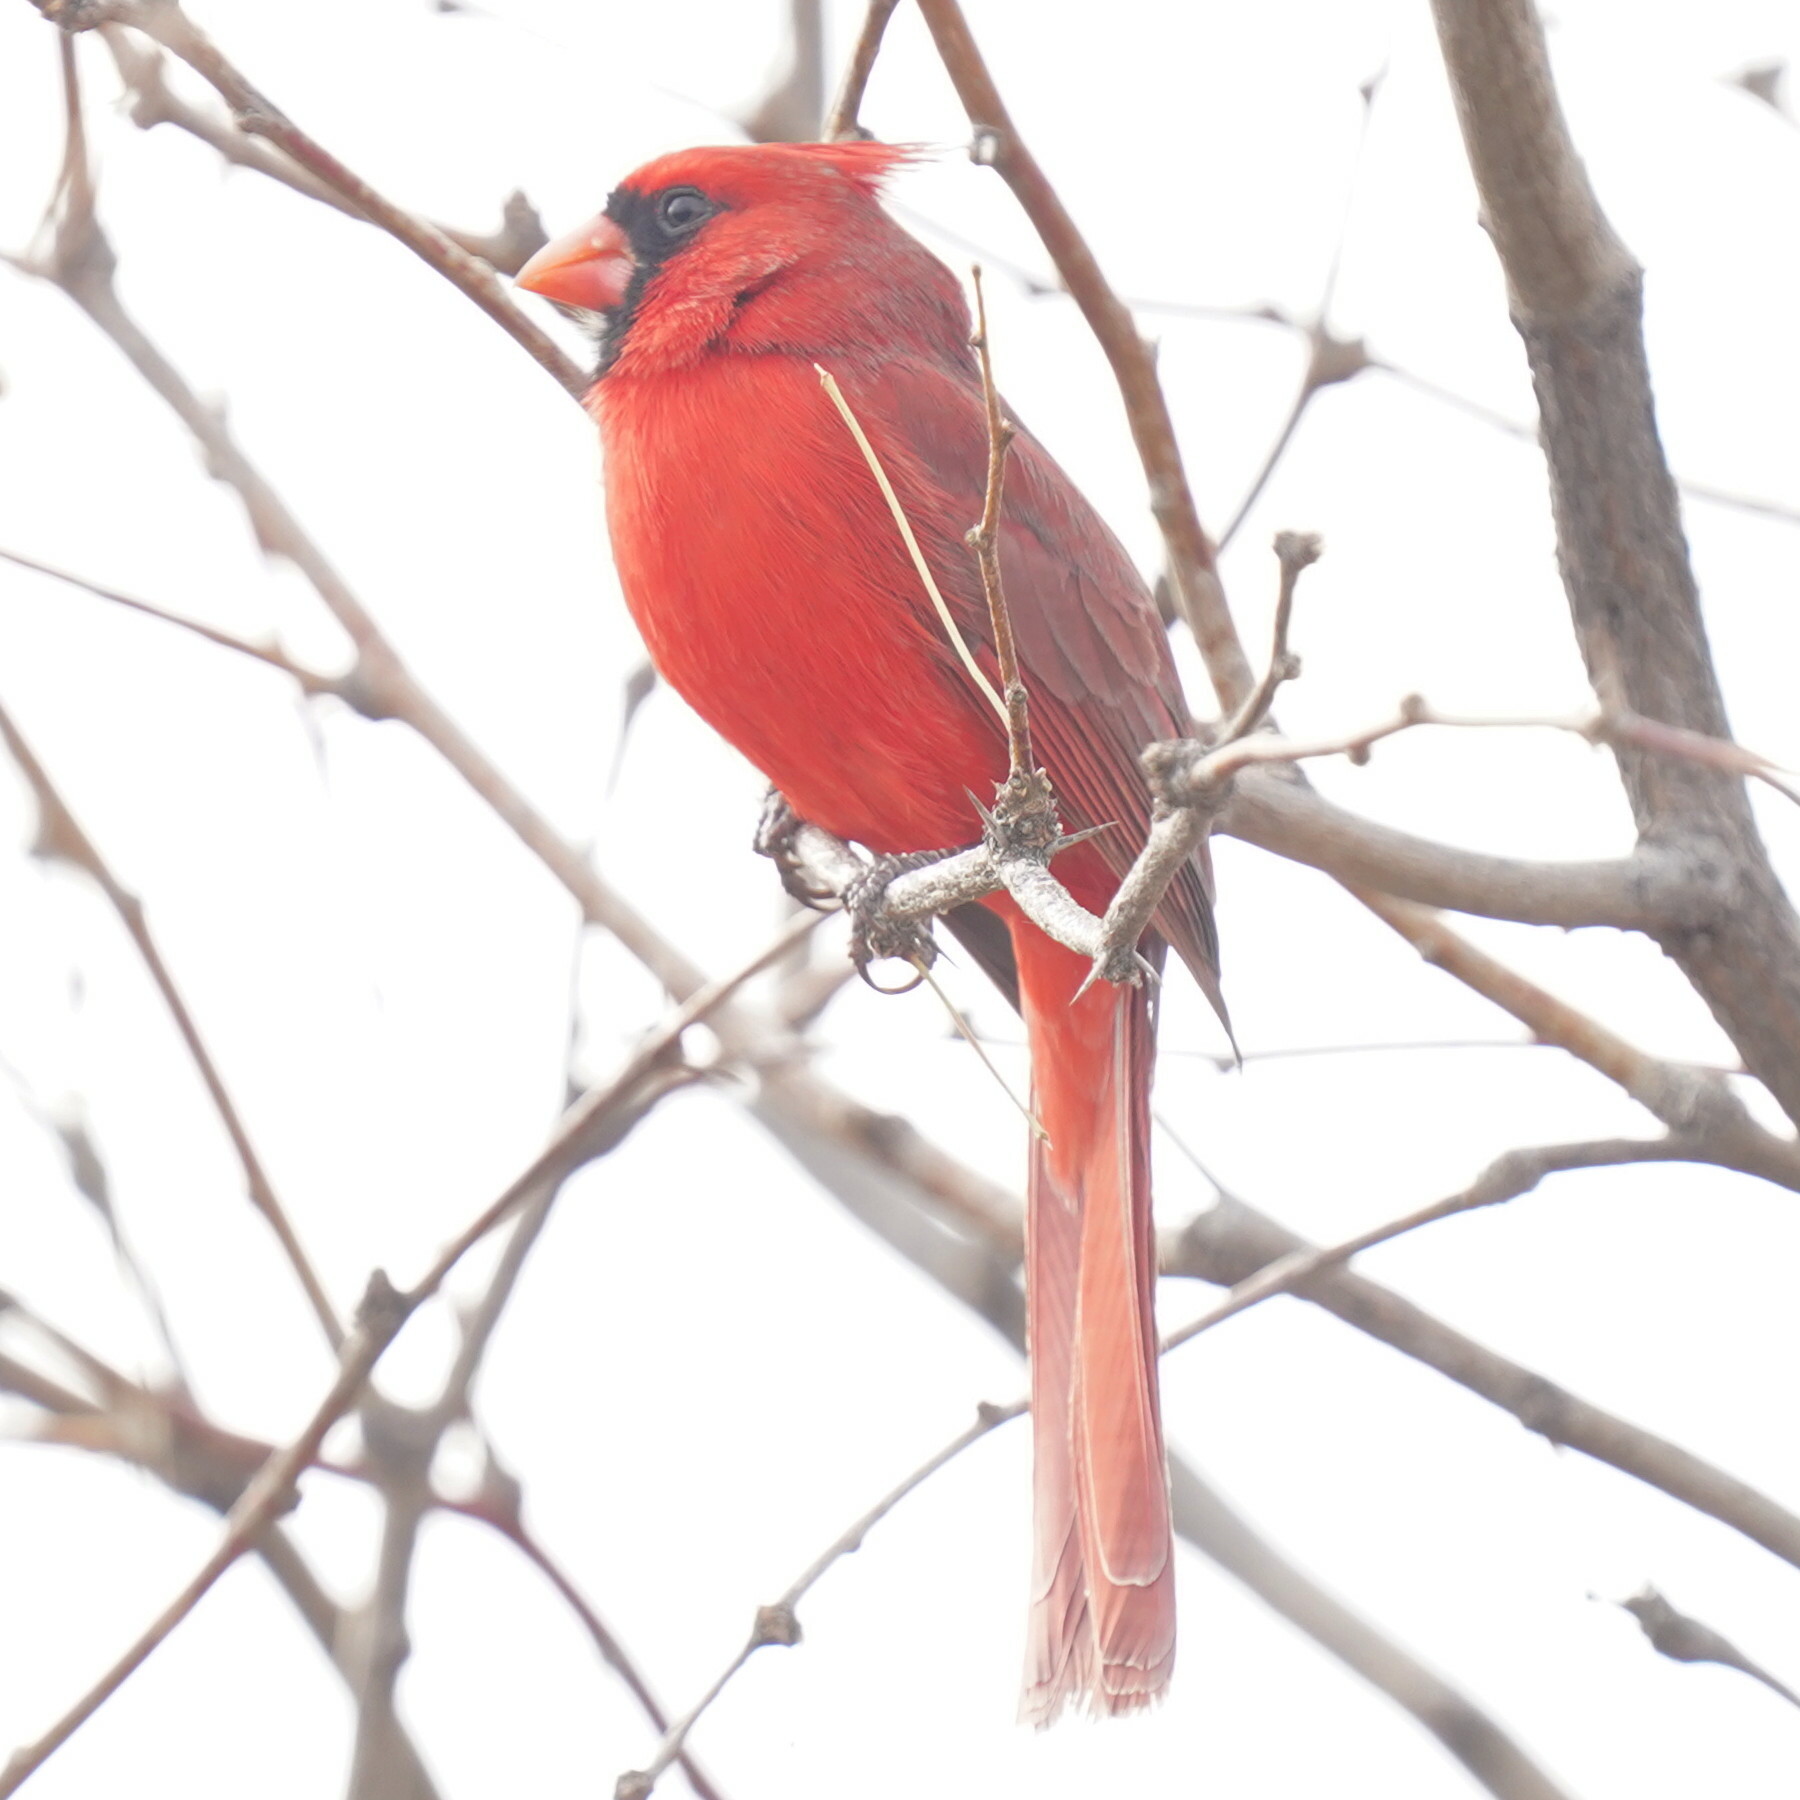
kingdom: Animalia
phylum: Chordata
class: Aves
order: Passeriformes
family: Cardinalidae
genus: Cardinalis
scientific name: Cardinalis cardinalis
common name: Northern cardinal
